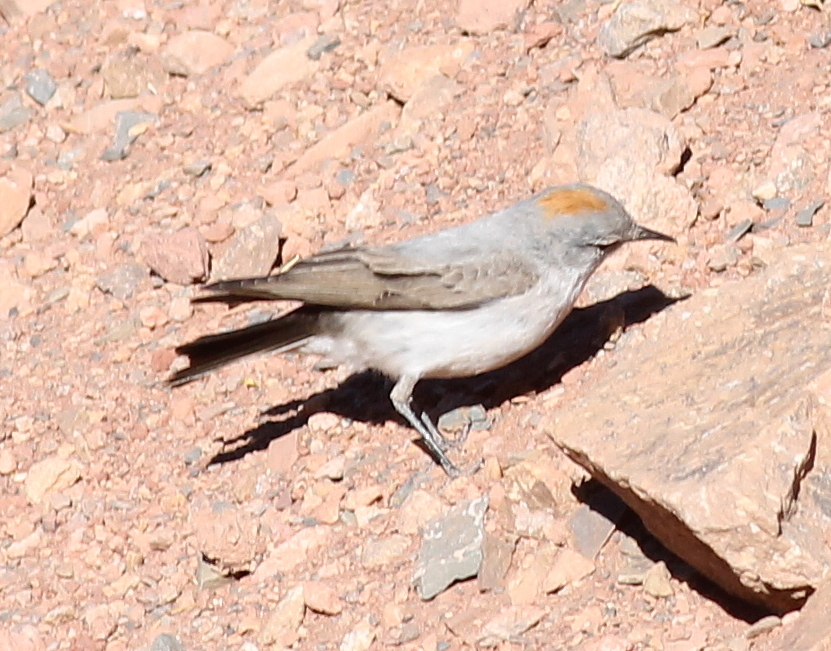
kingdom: Animalia
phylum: Chordata
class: Aves
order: Passeriformes
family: Tyrannidae
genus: Muscisaxicola
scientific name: Muscisaxicola rufivertex
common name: Rufous-naped ground tyrant
